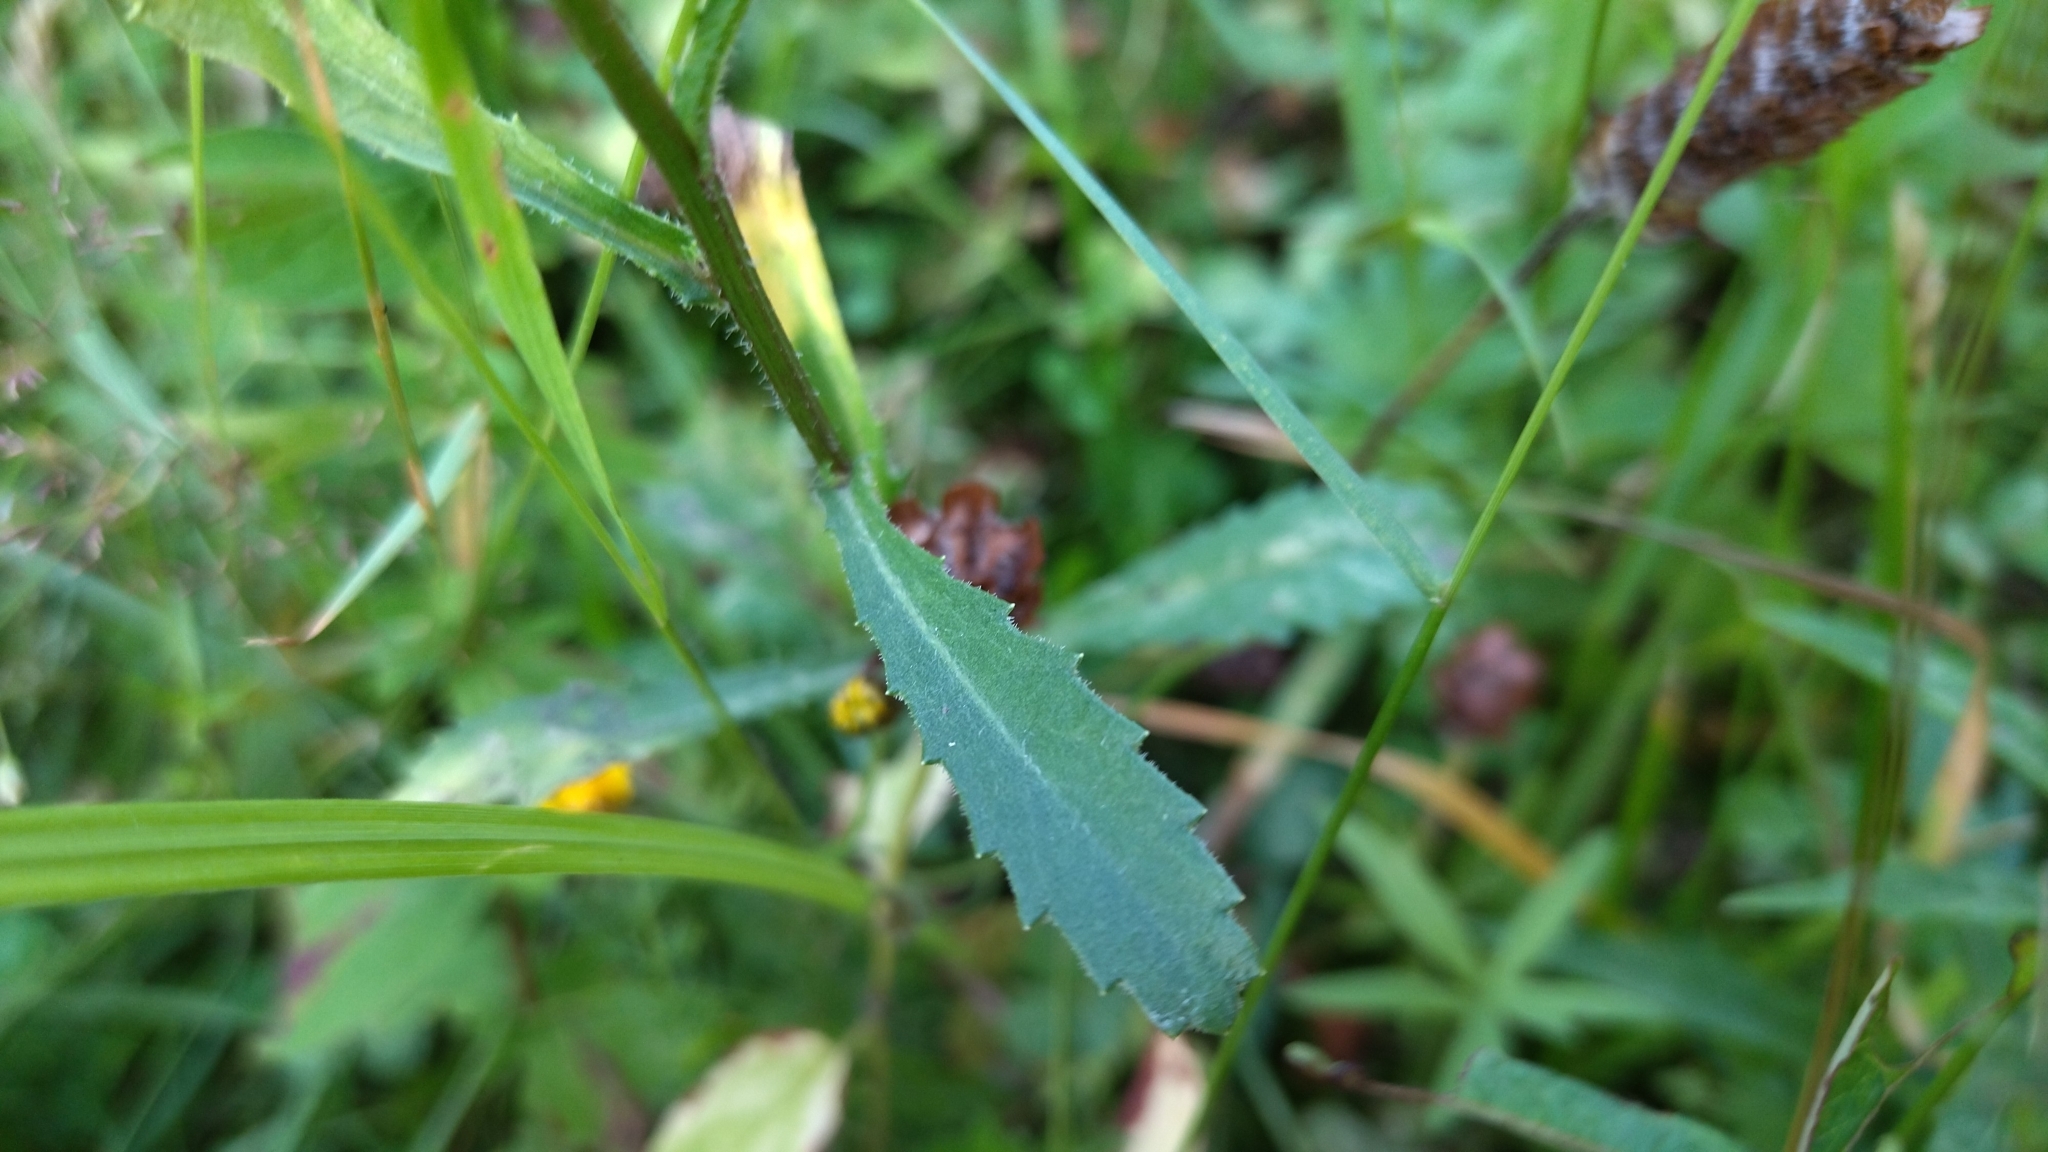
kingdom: Plantae
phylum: Tracheophyta
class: Magnoliopsida
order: Asterales
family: Asteraceae
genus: Leucanthemum
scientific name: Leucanthemum vulgare
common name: Oxeye daisy
